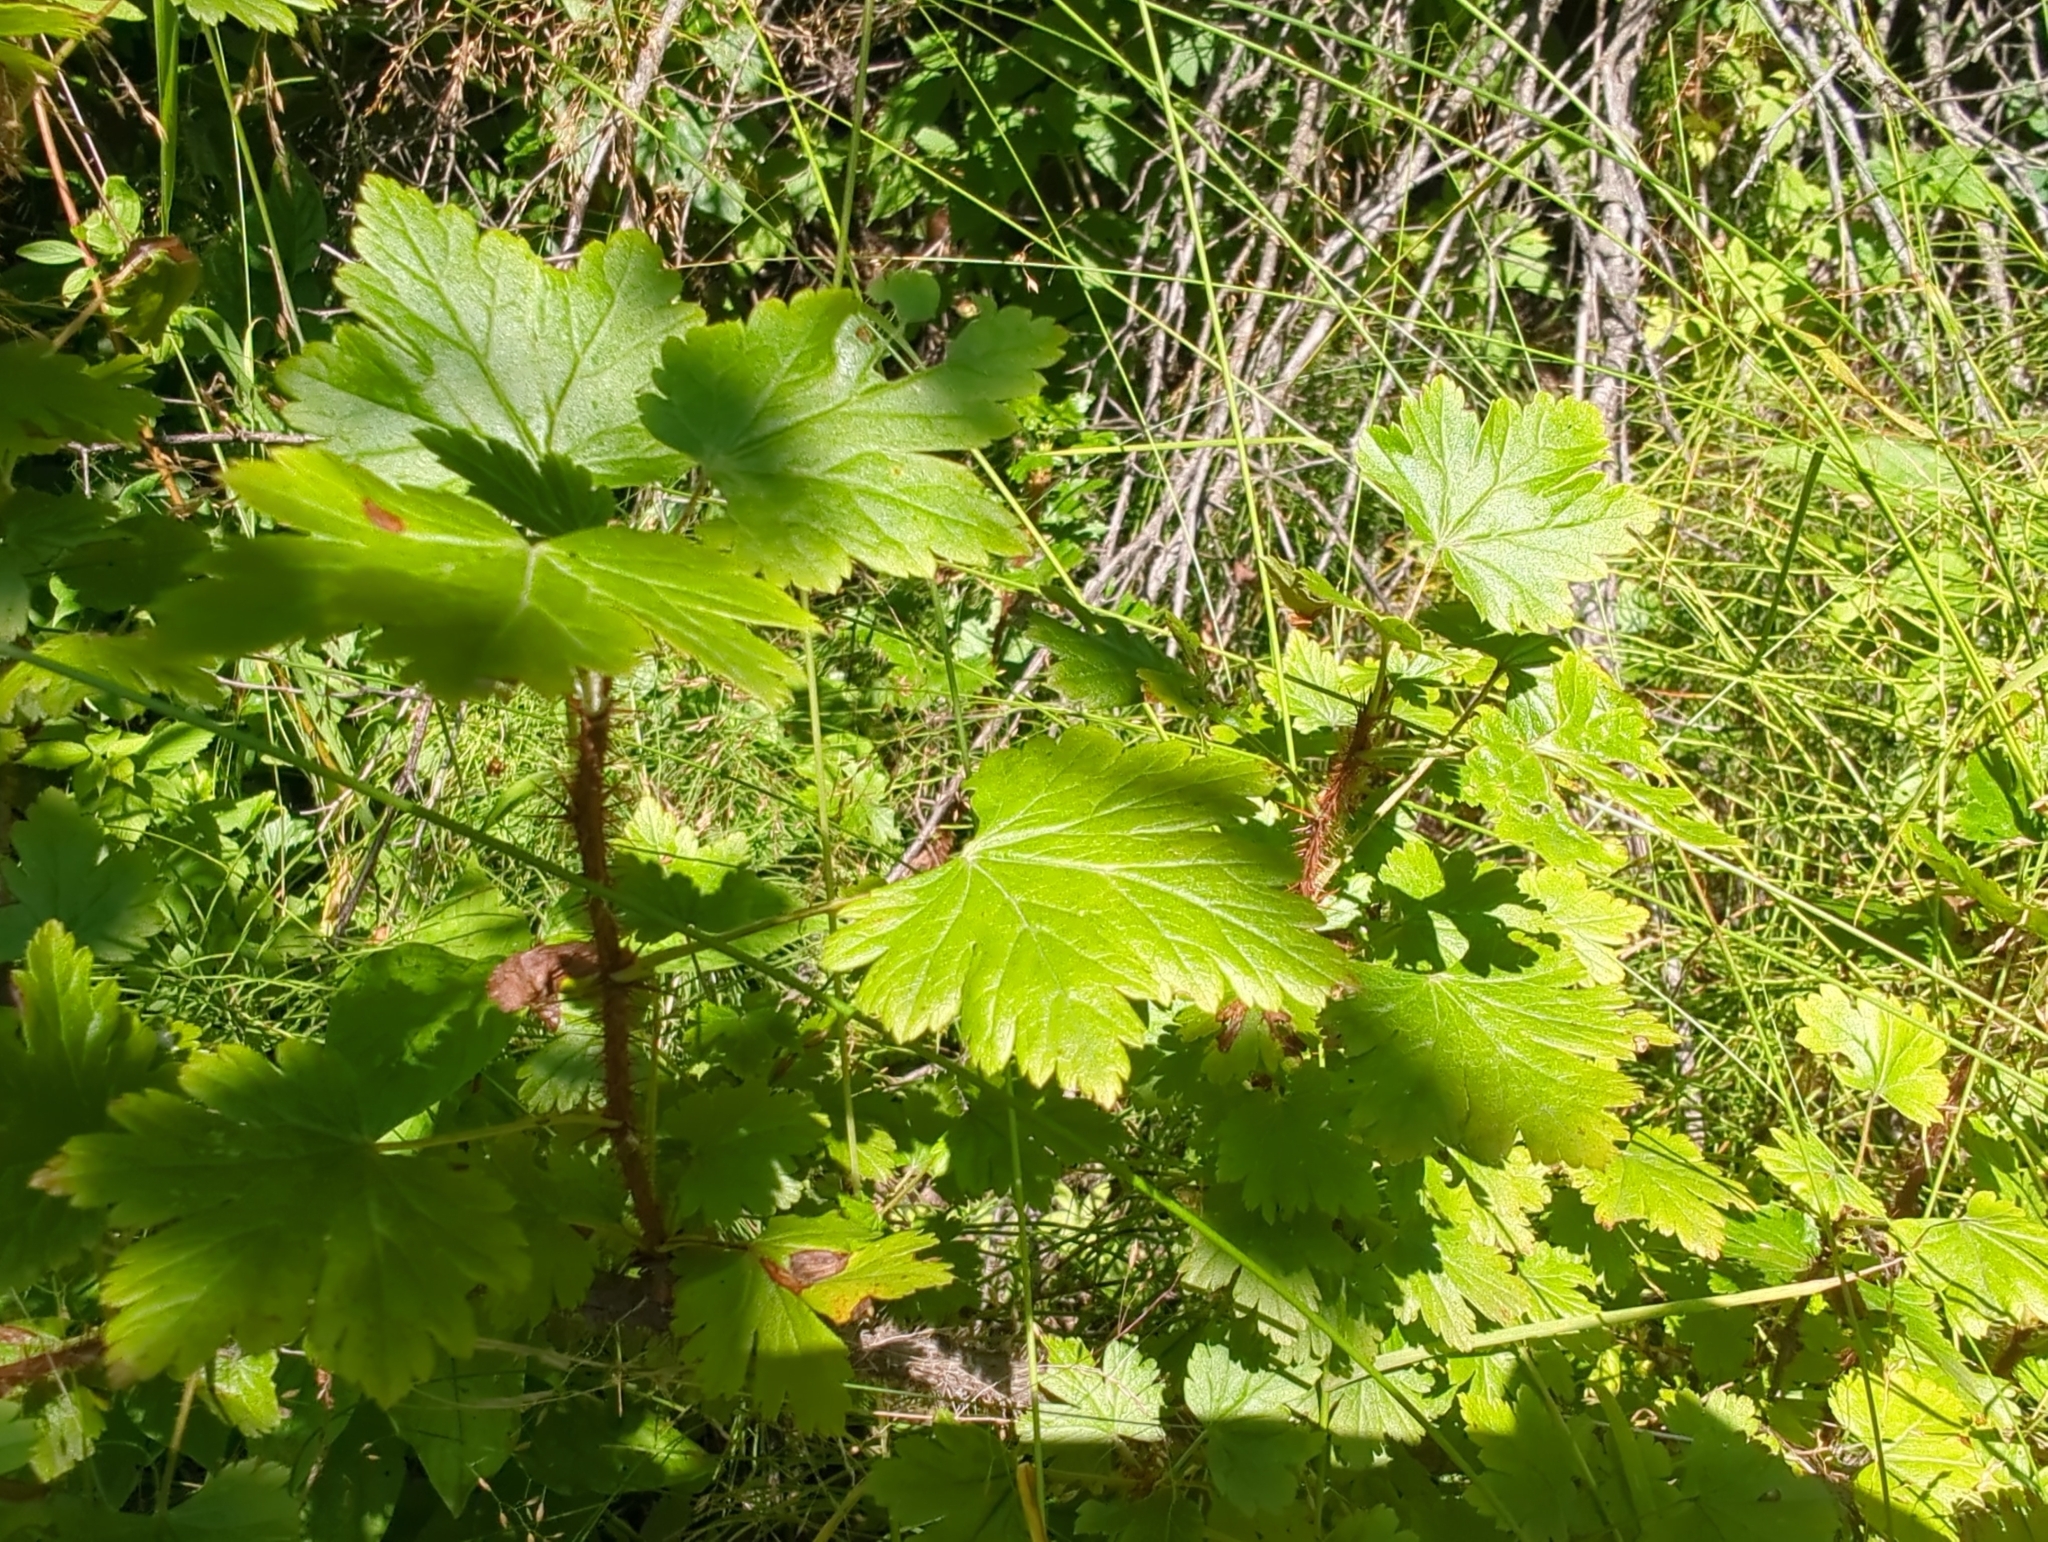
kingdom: Plantae
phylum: Tracheophyta
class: Magnoliopsida
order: Saxifragales
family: Grossulariaceae
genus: Ribes
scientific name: Ribes lacustre
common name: Black gooseberry
